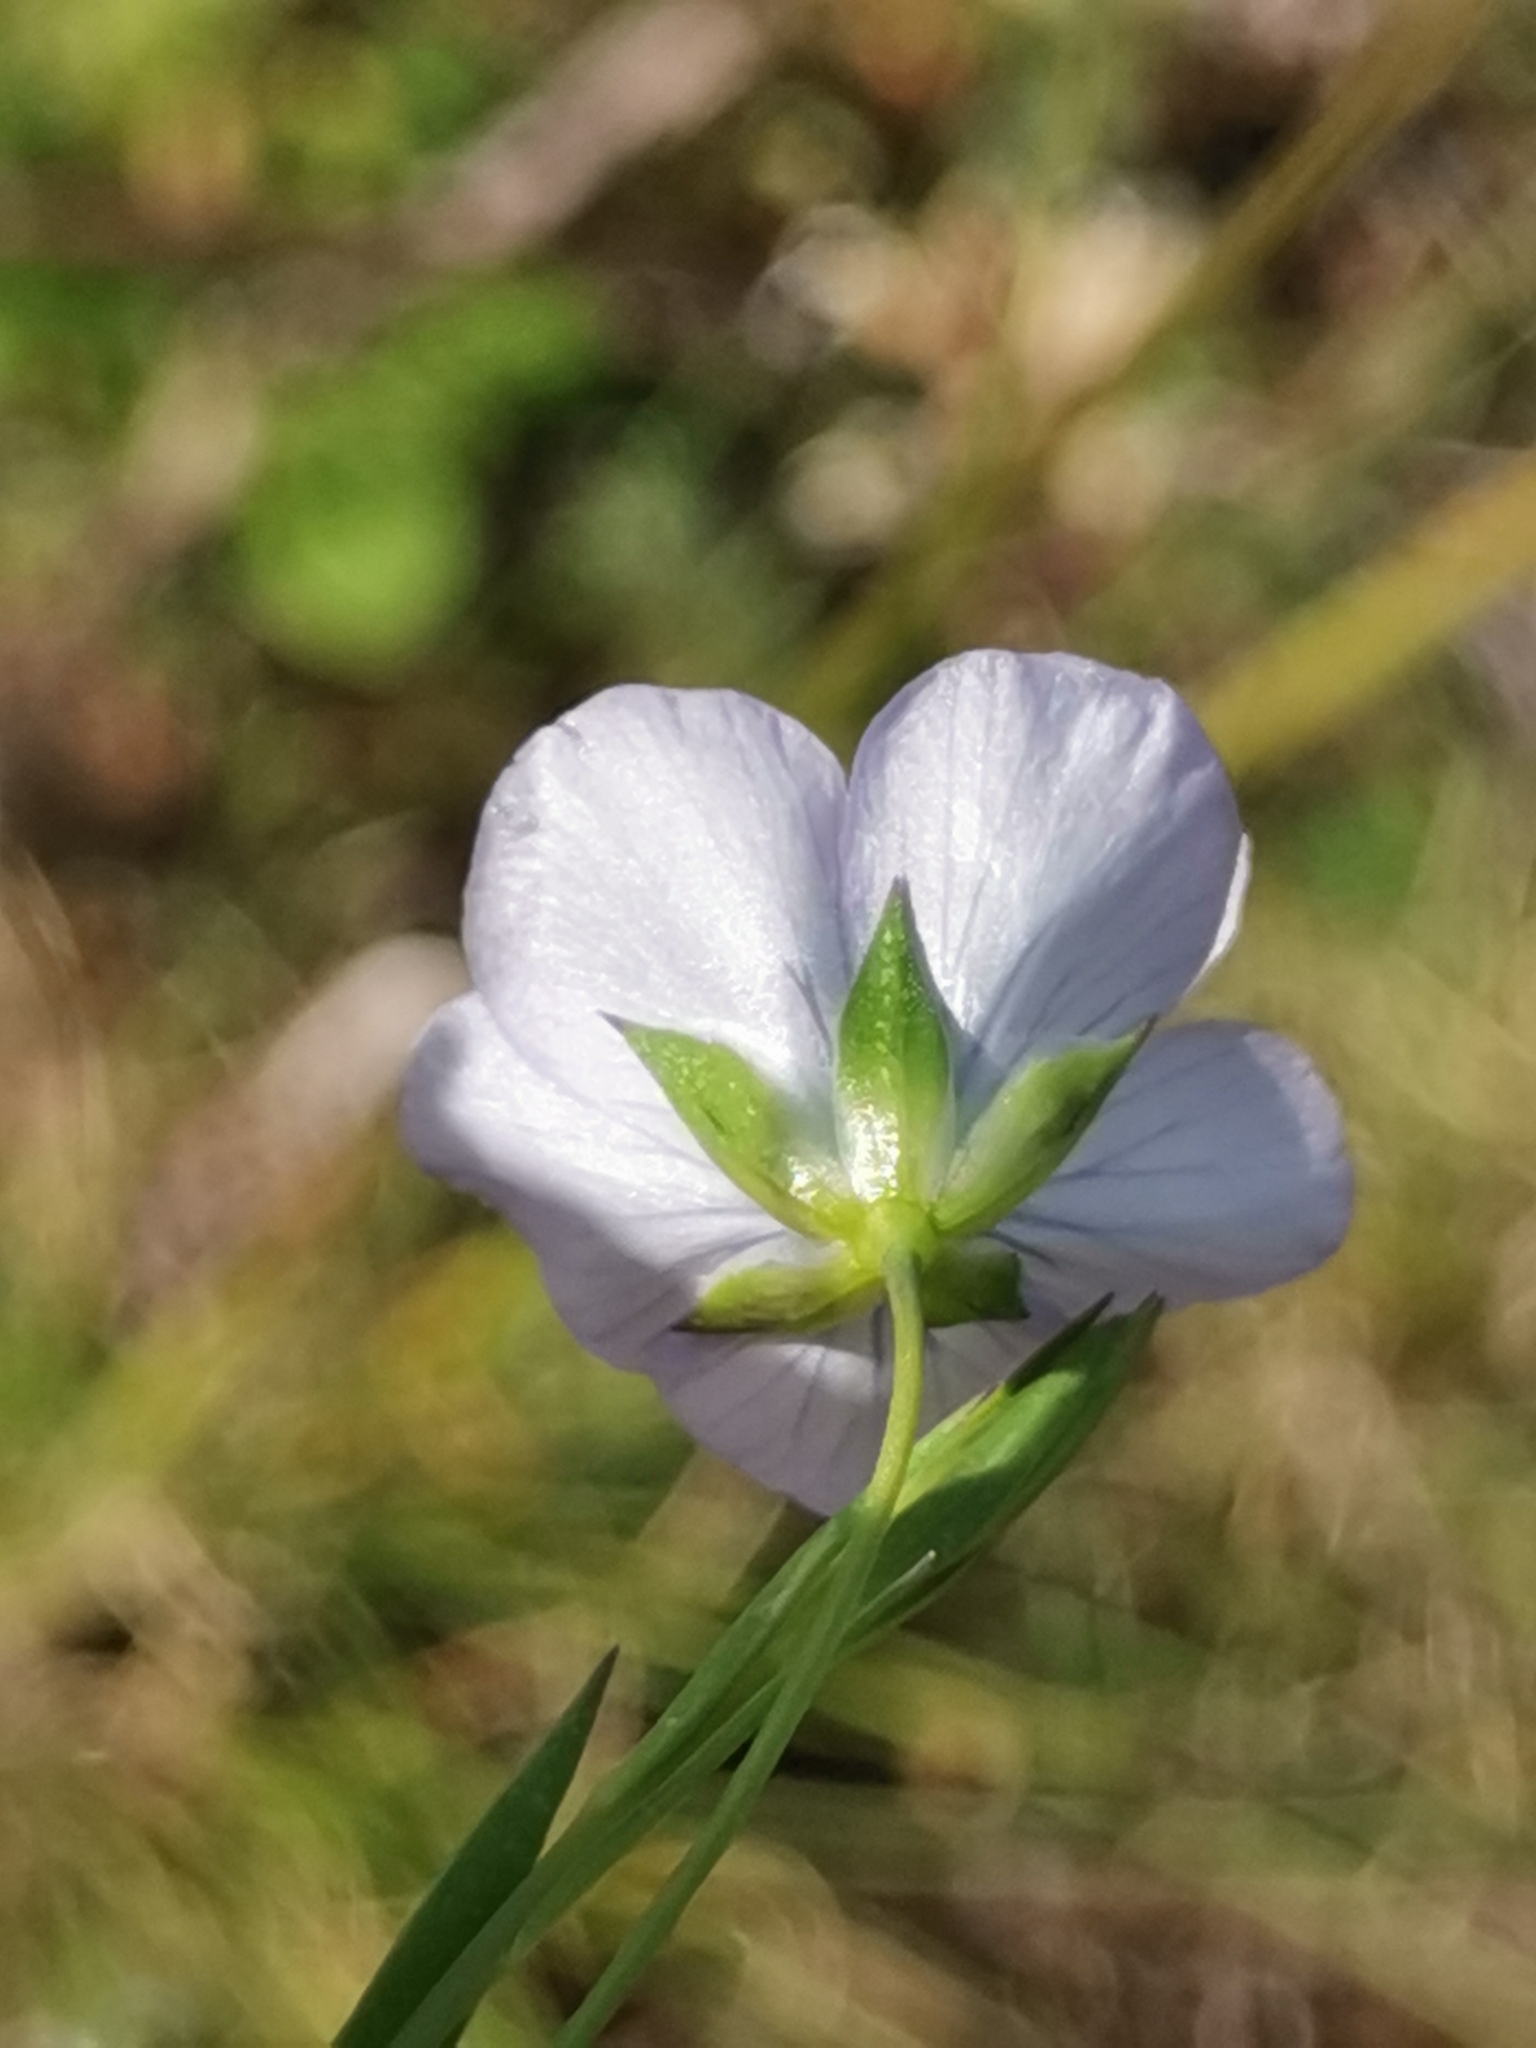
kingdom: Plantae
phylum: Tracheophyta
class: Magnoliopsida
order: Malpighiales
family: Linaceae
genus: Linum
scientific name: Linum bienne
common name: Pale flax
